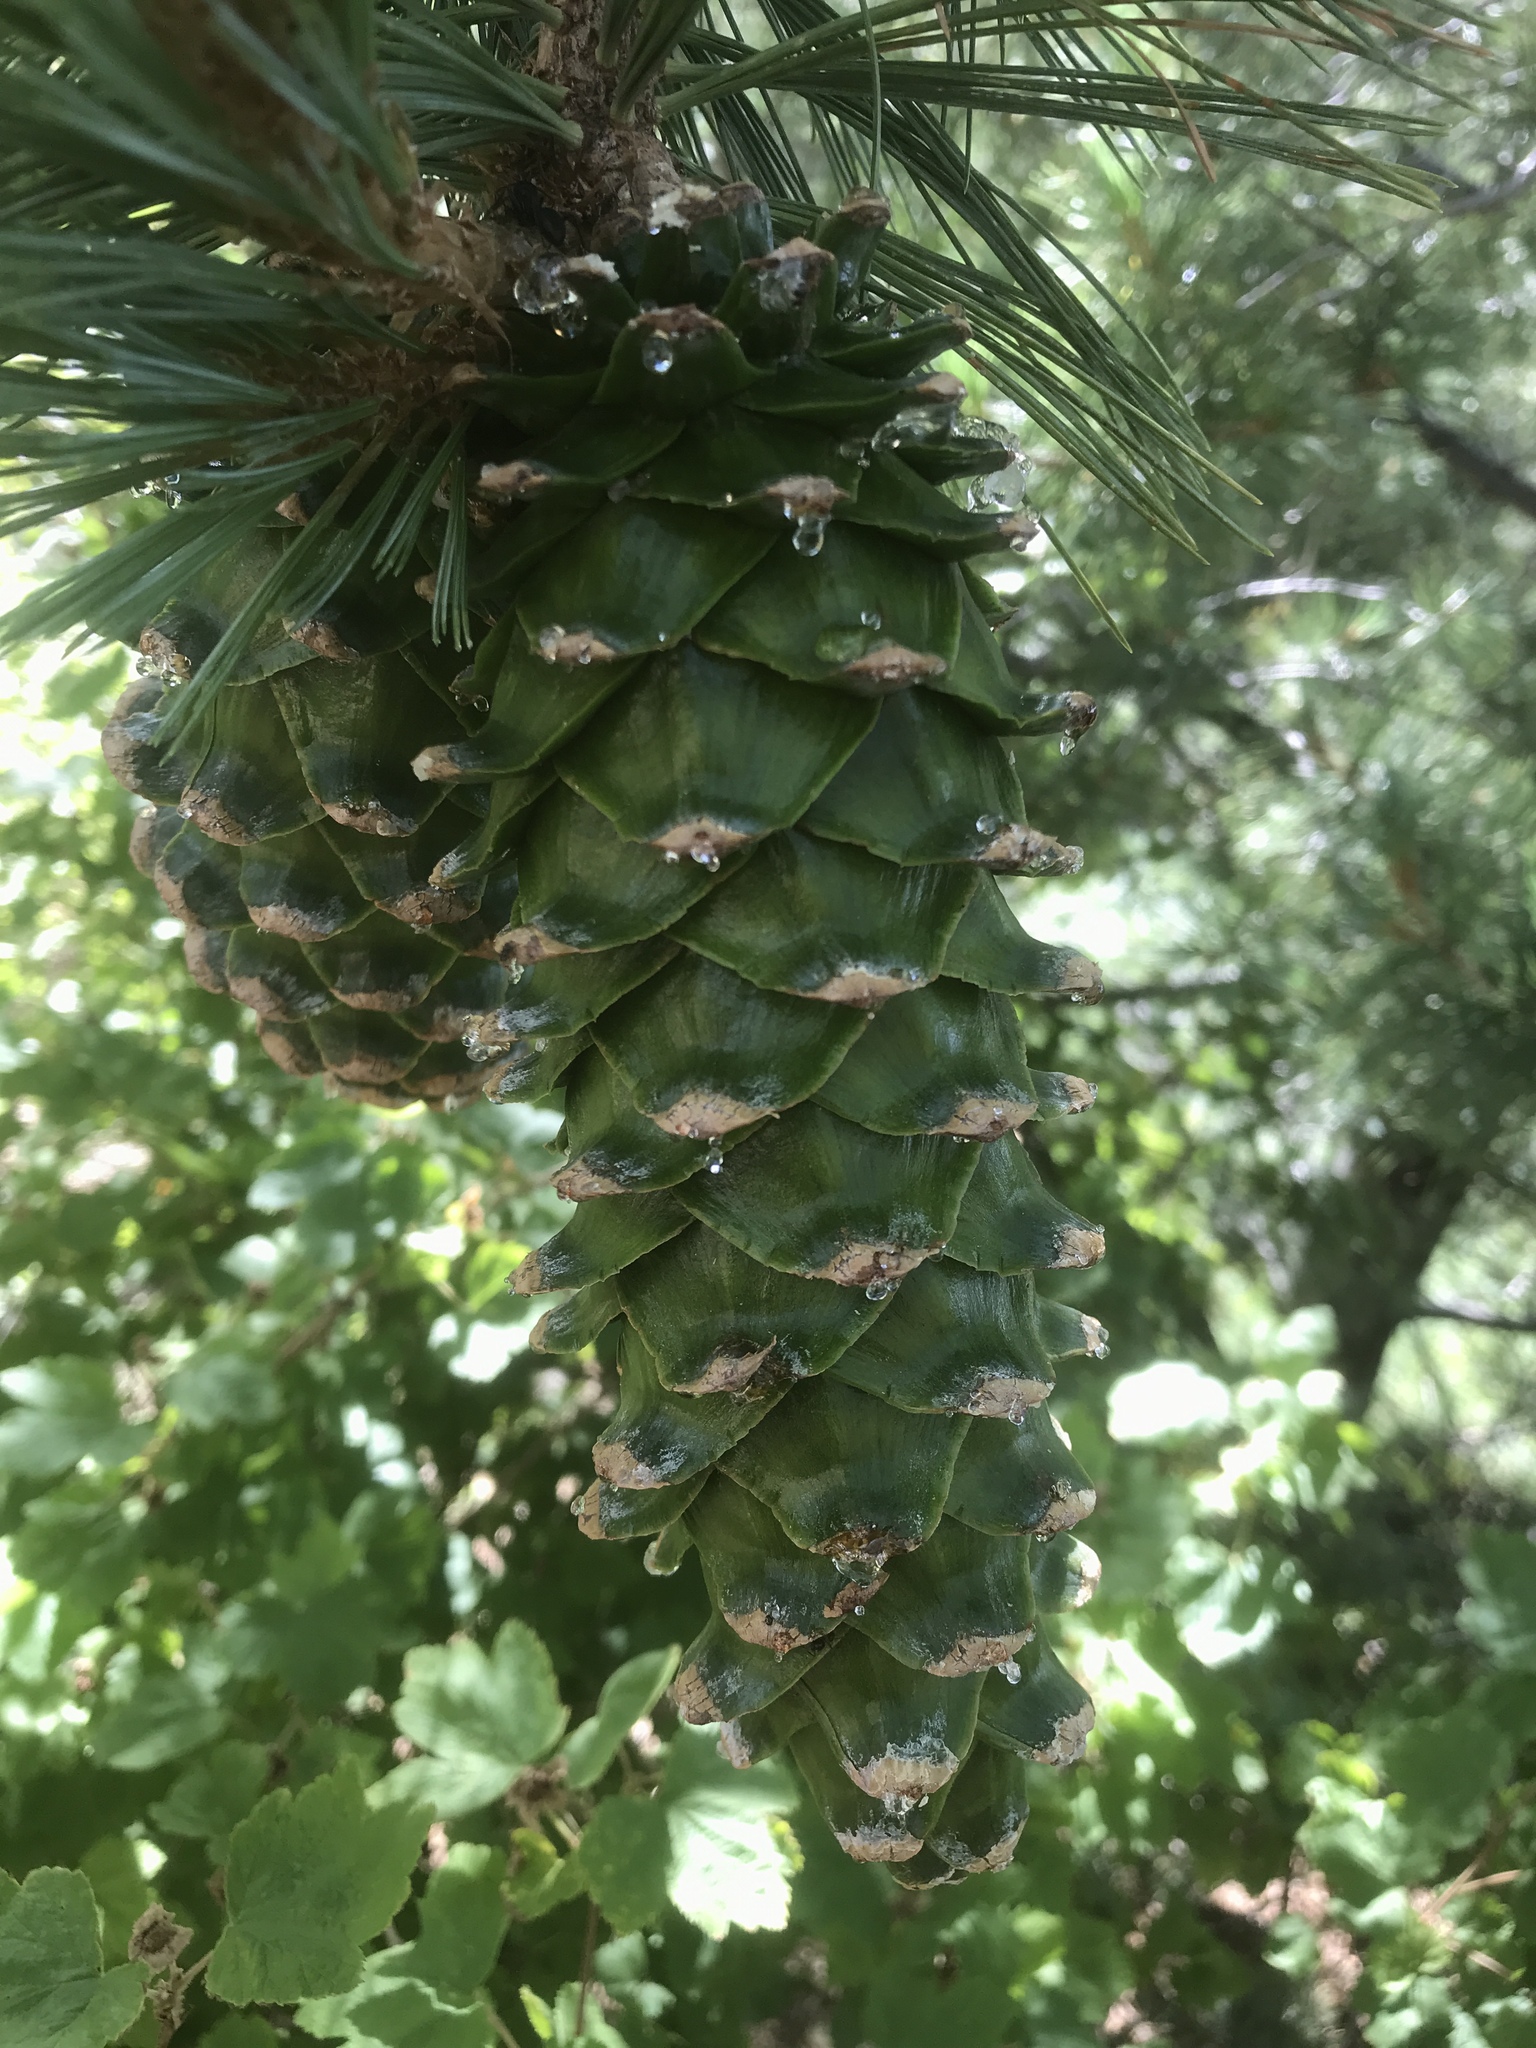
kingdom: Plantae
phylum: Tracheophyta
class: Pinopsida
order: Pinales
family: Pinaceae
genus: Pinus
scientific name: Pinus strobiformis
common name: Southwestern white pine
